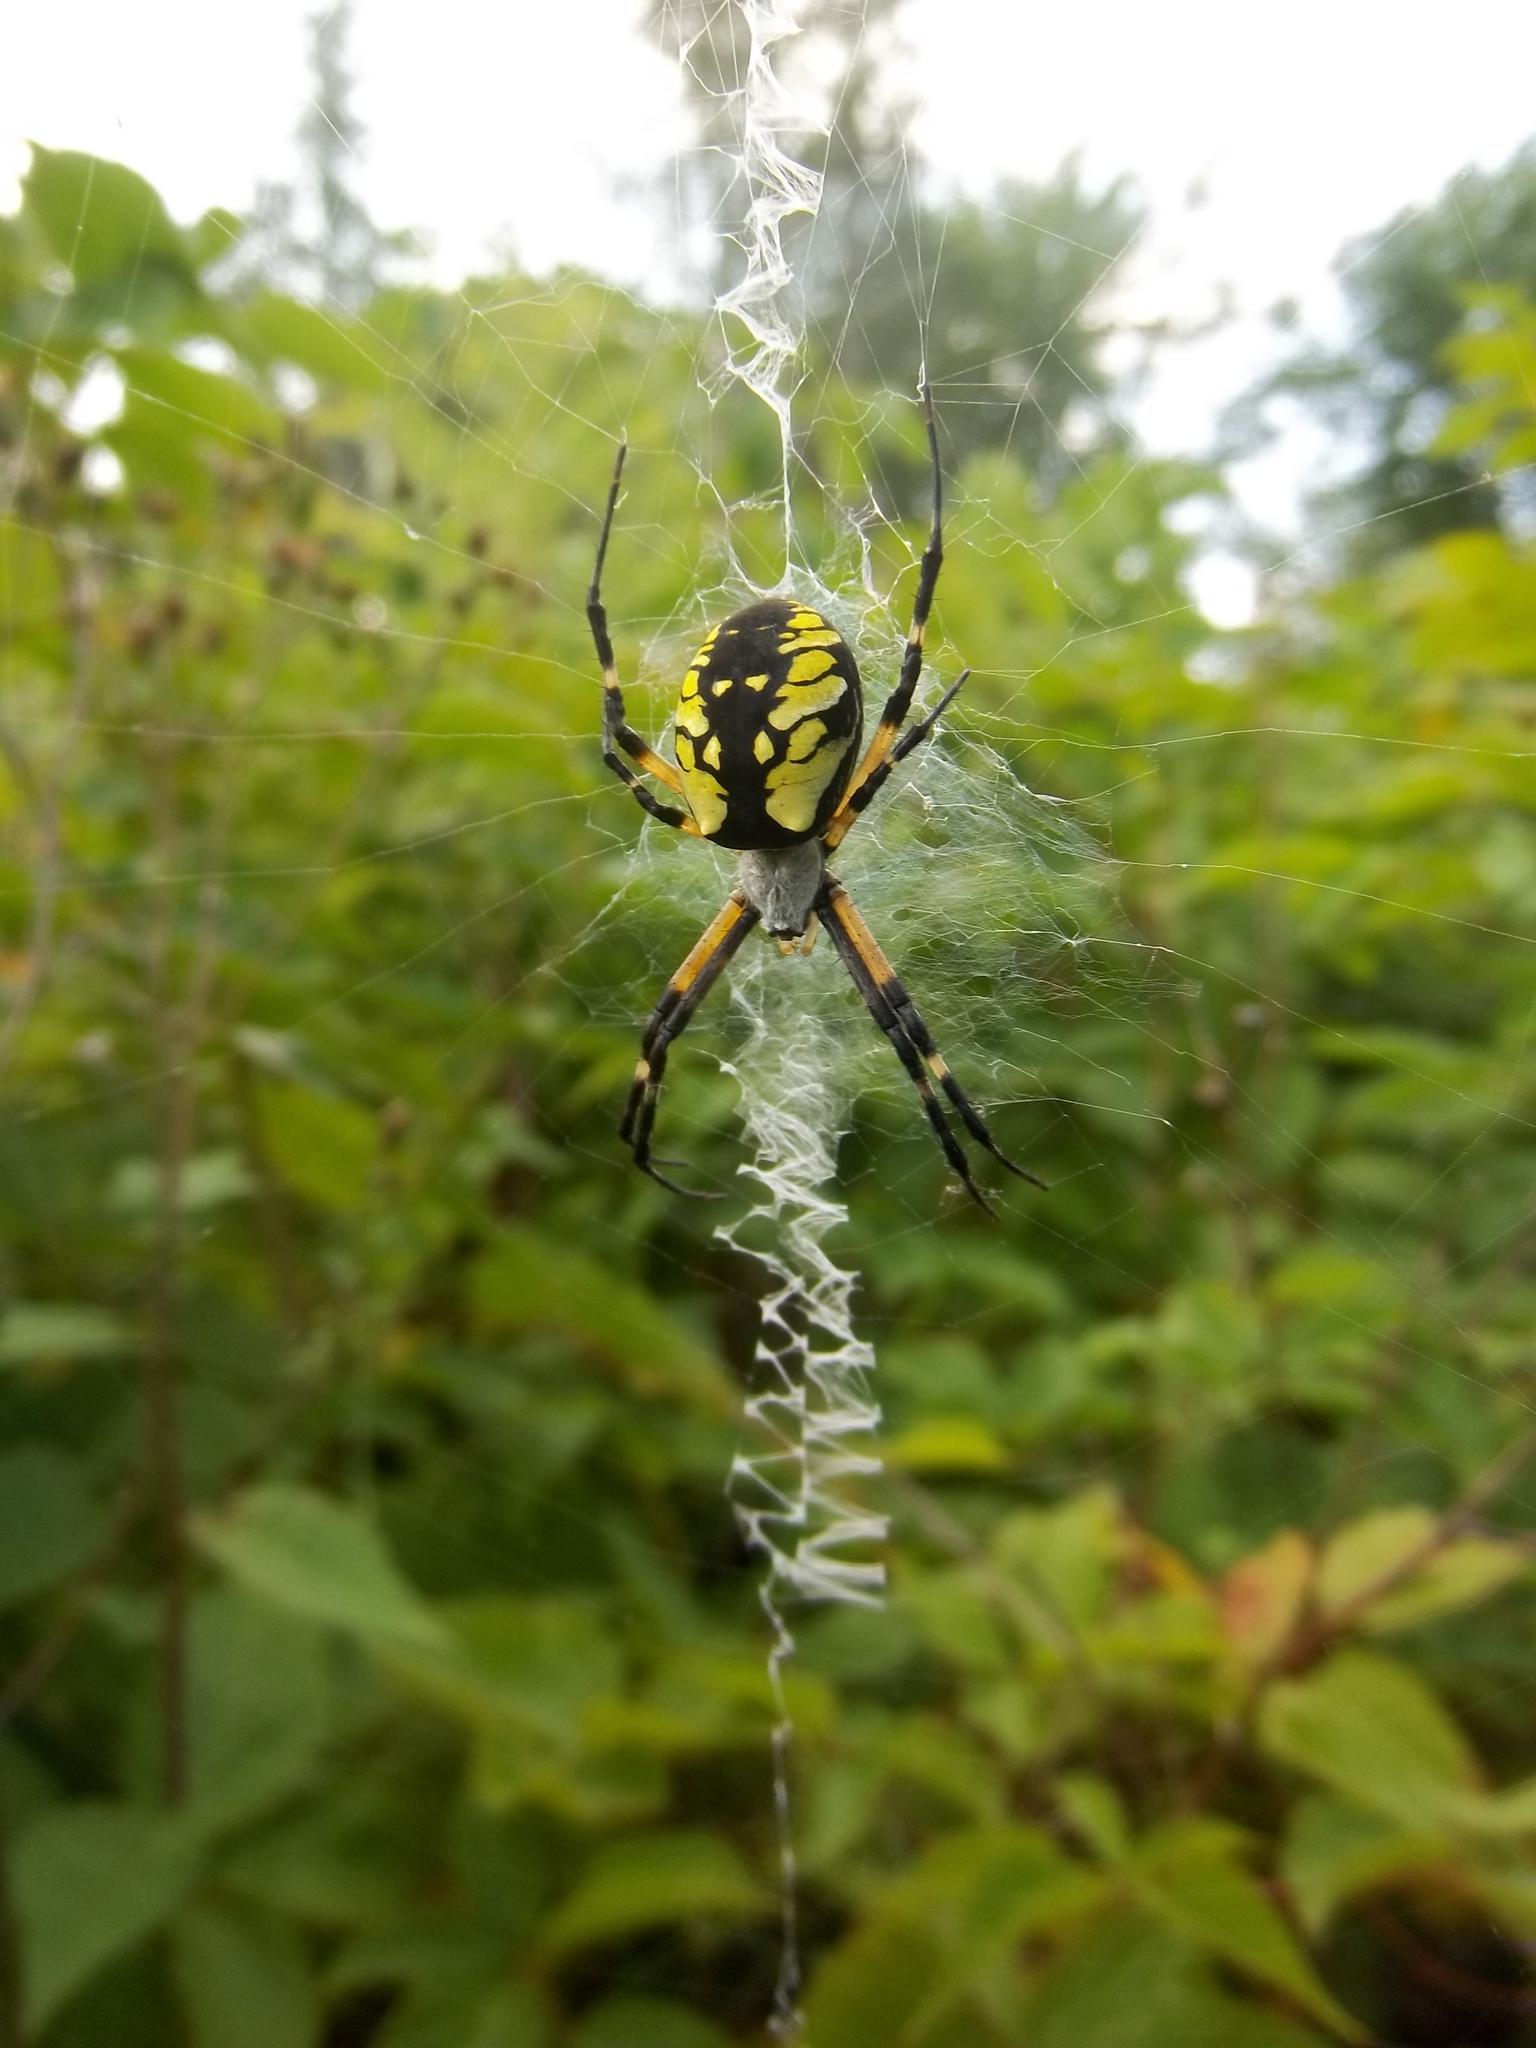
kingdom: Animalia
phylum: Arthropoda
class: Arachnida
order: Araneae
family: Araneidae
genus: Argiope
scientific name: Argiope aurantia
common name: Orb weavers
